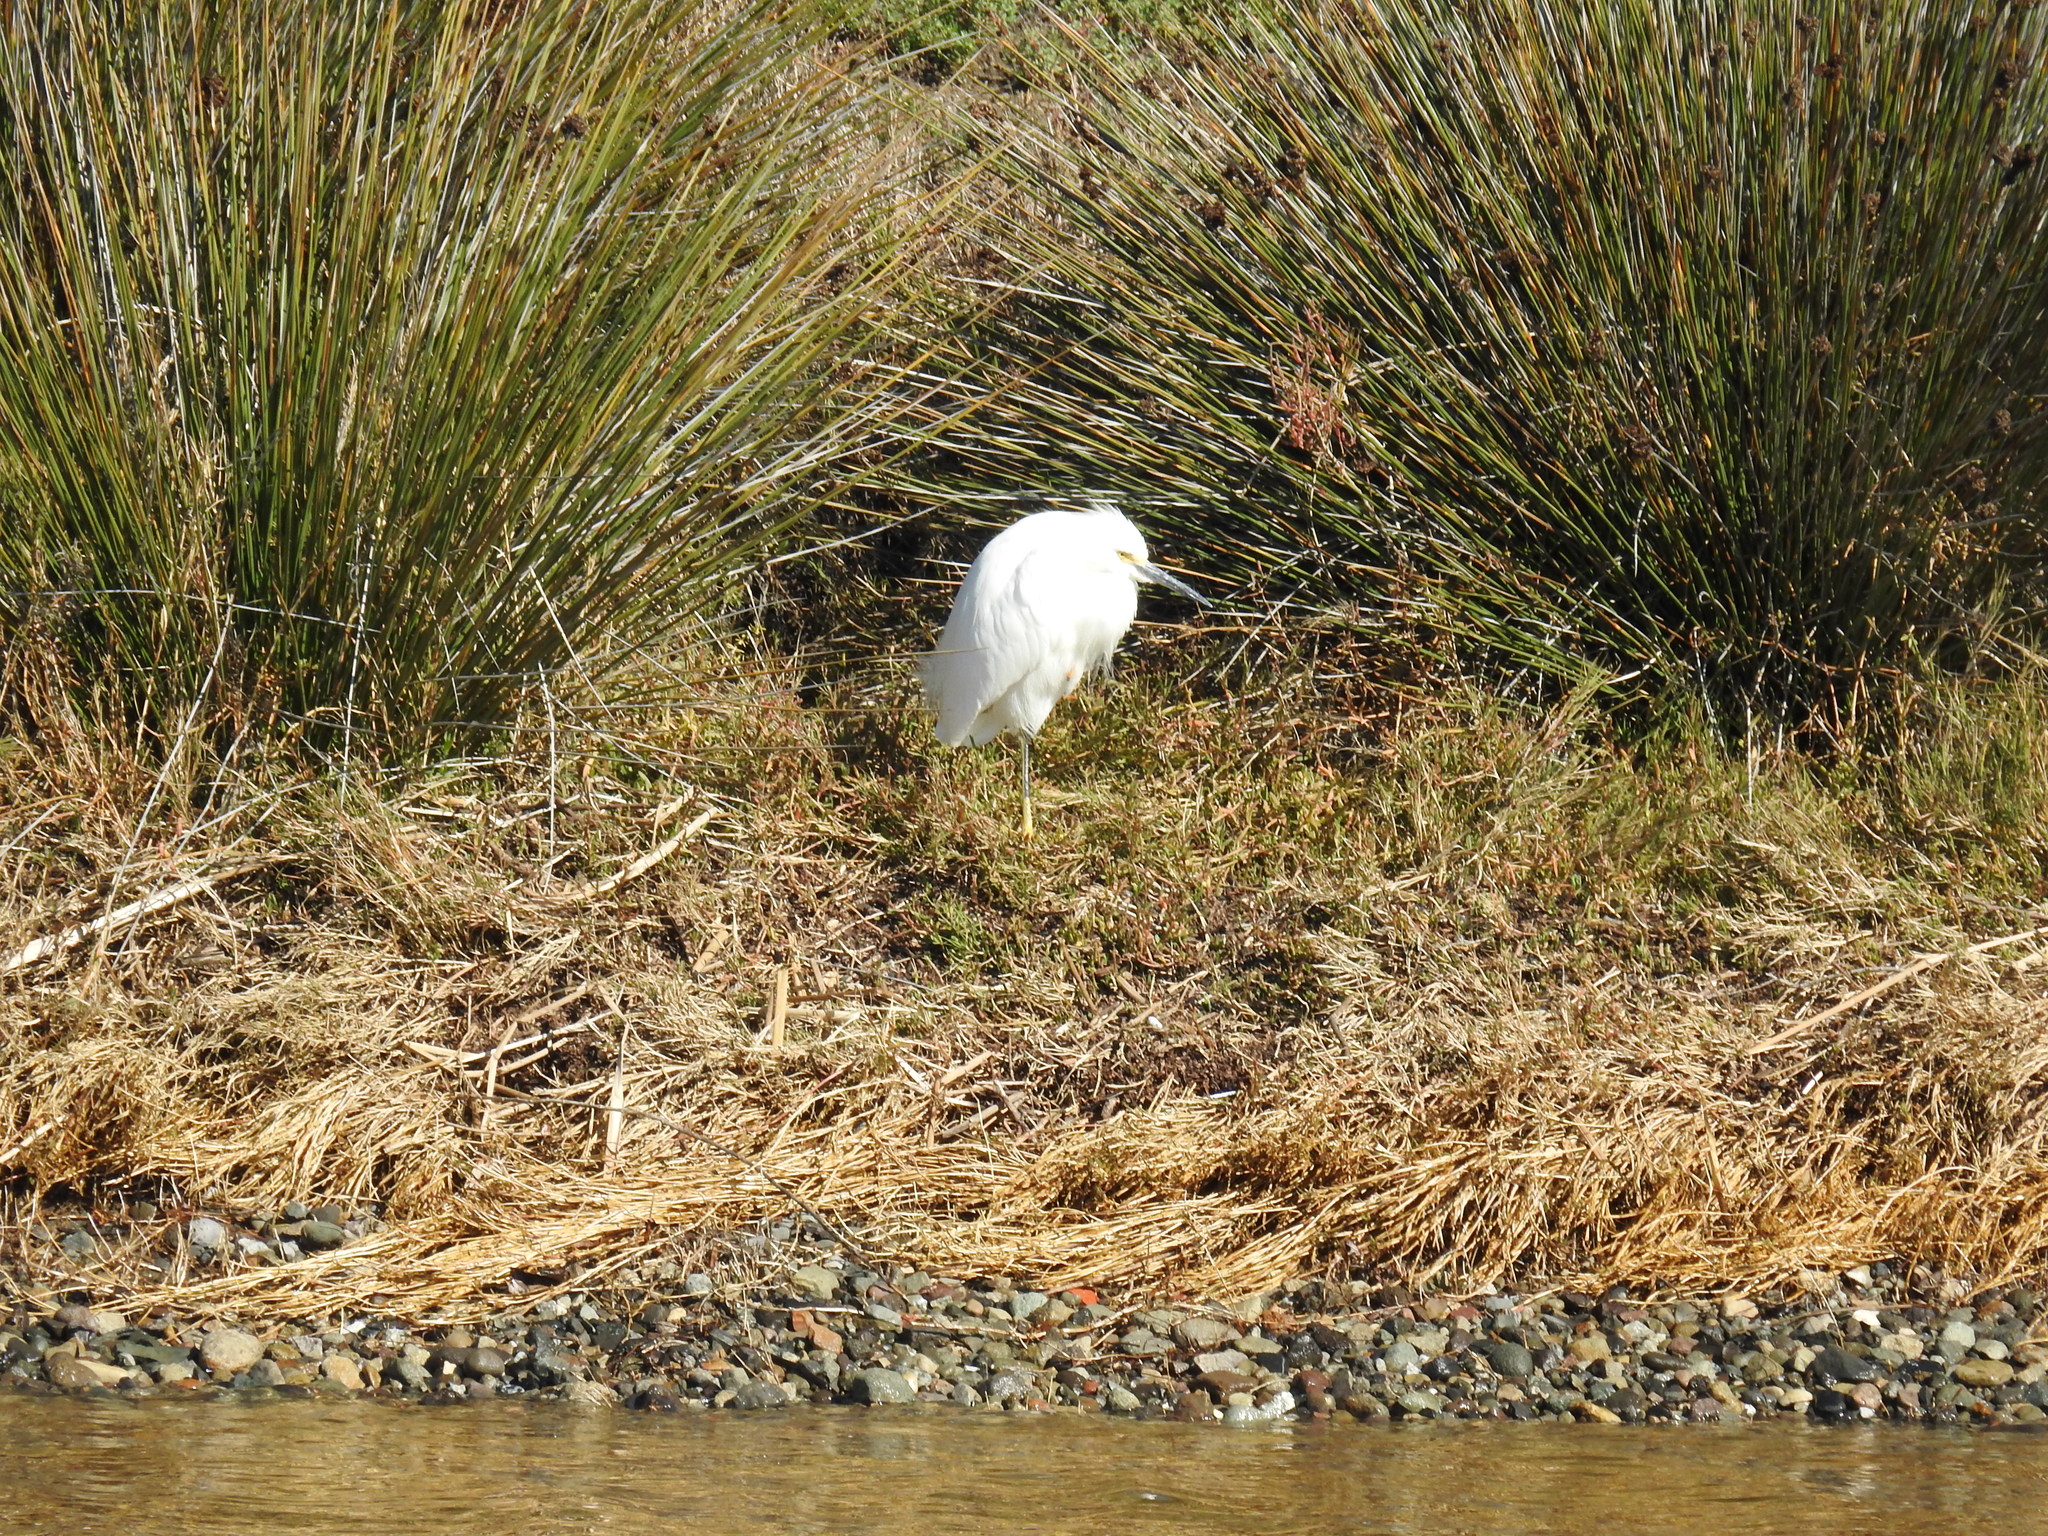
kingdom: Animalia
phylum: Chordata
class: Aves
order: Pelecaniformes
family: Ardeidae
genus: Egretta
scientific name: Egretta thula
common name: Snowy egret
